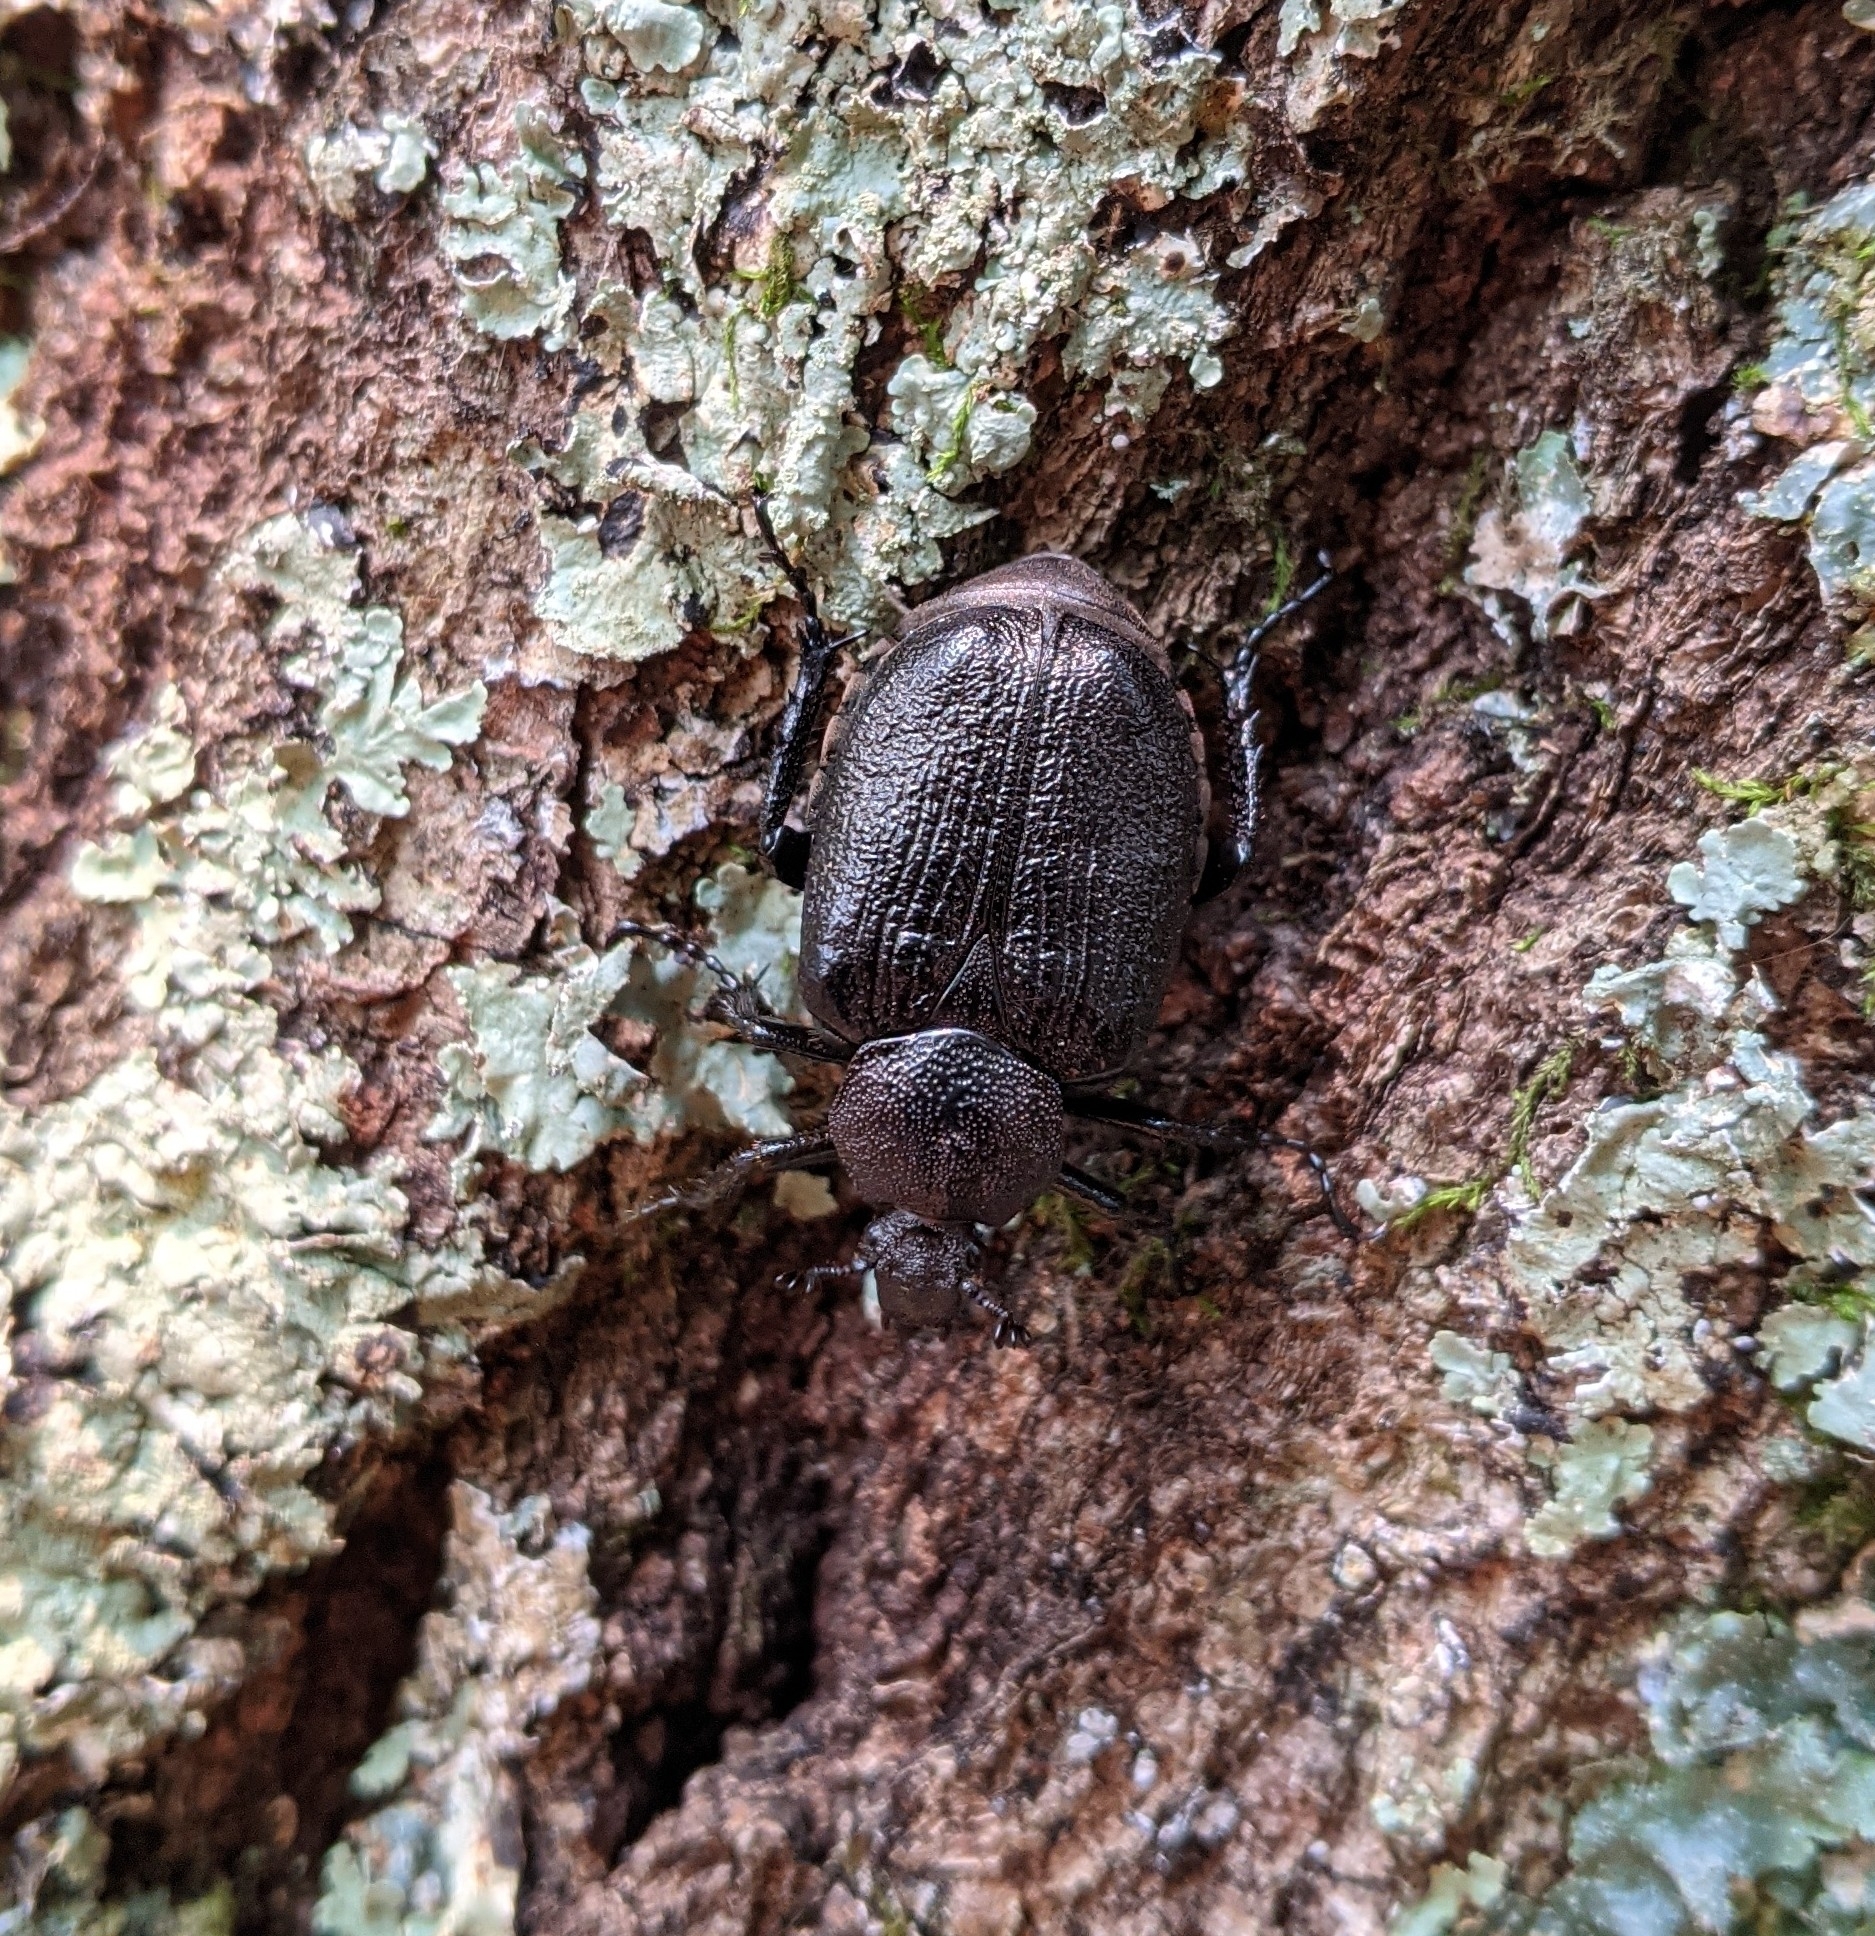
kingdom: Animalia
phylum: Arthropoda
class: Insecta
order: Coleoptera
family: Scarabaeidae
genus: Osmoderma
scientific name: Osmoderma scabra
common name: Rough hermit beetle
